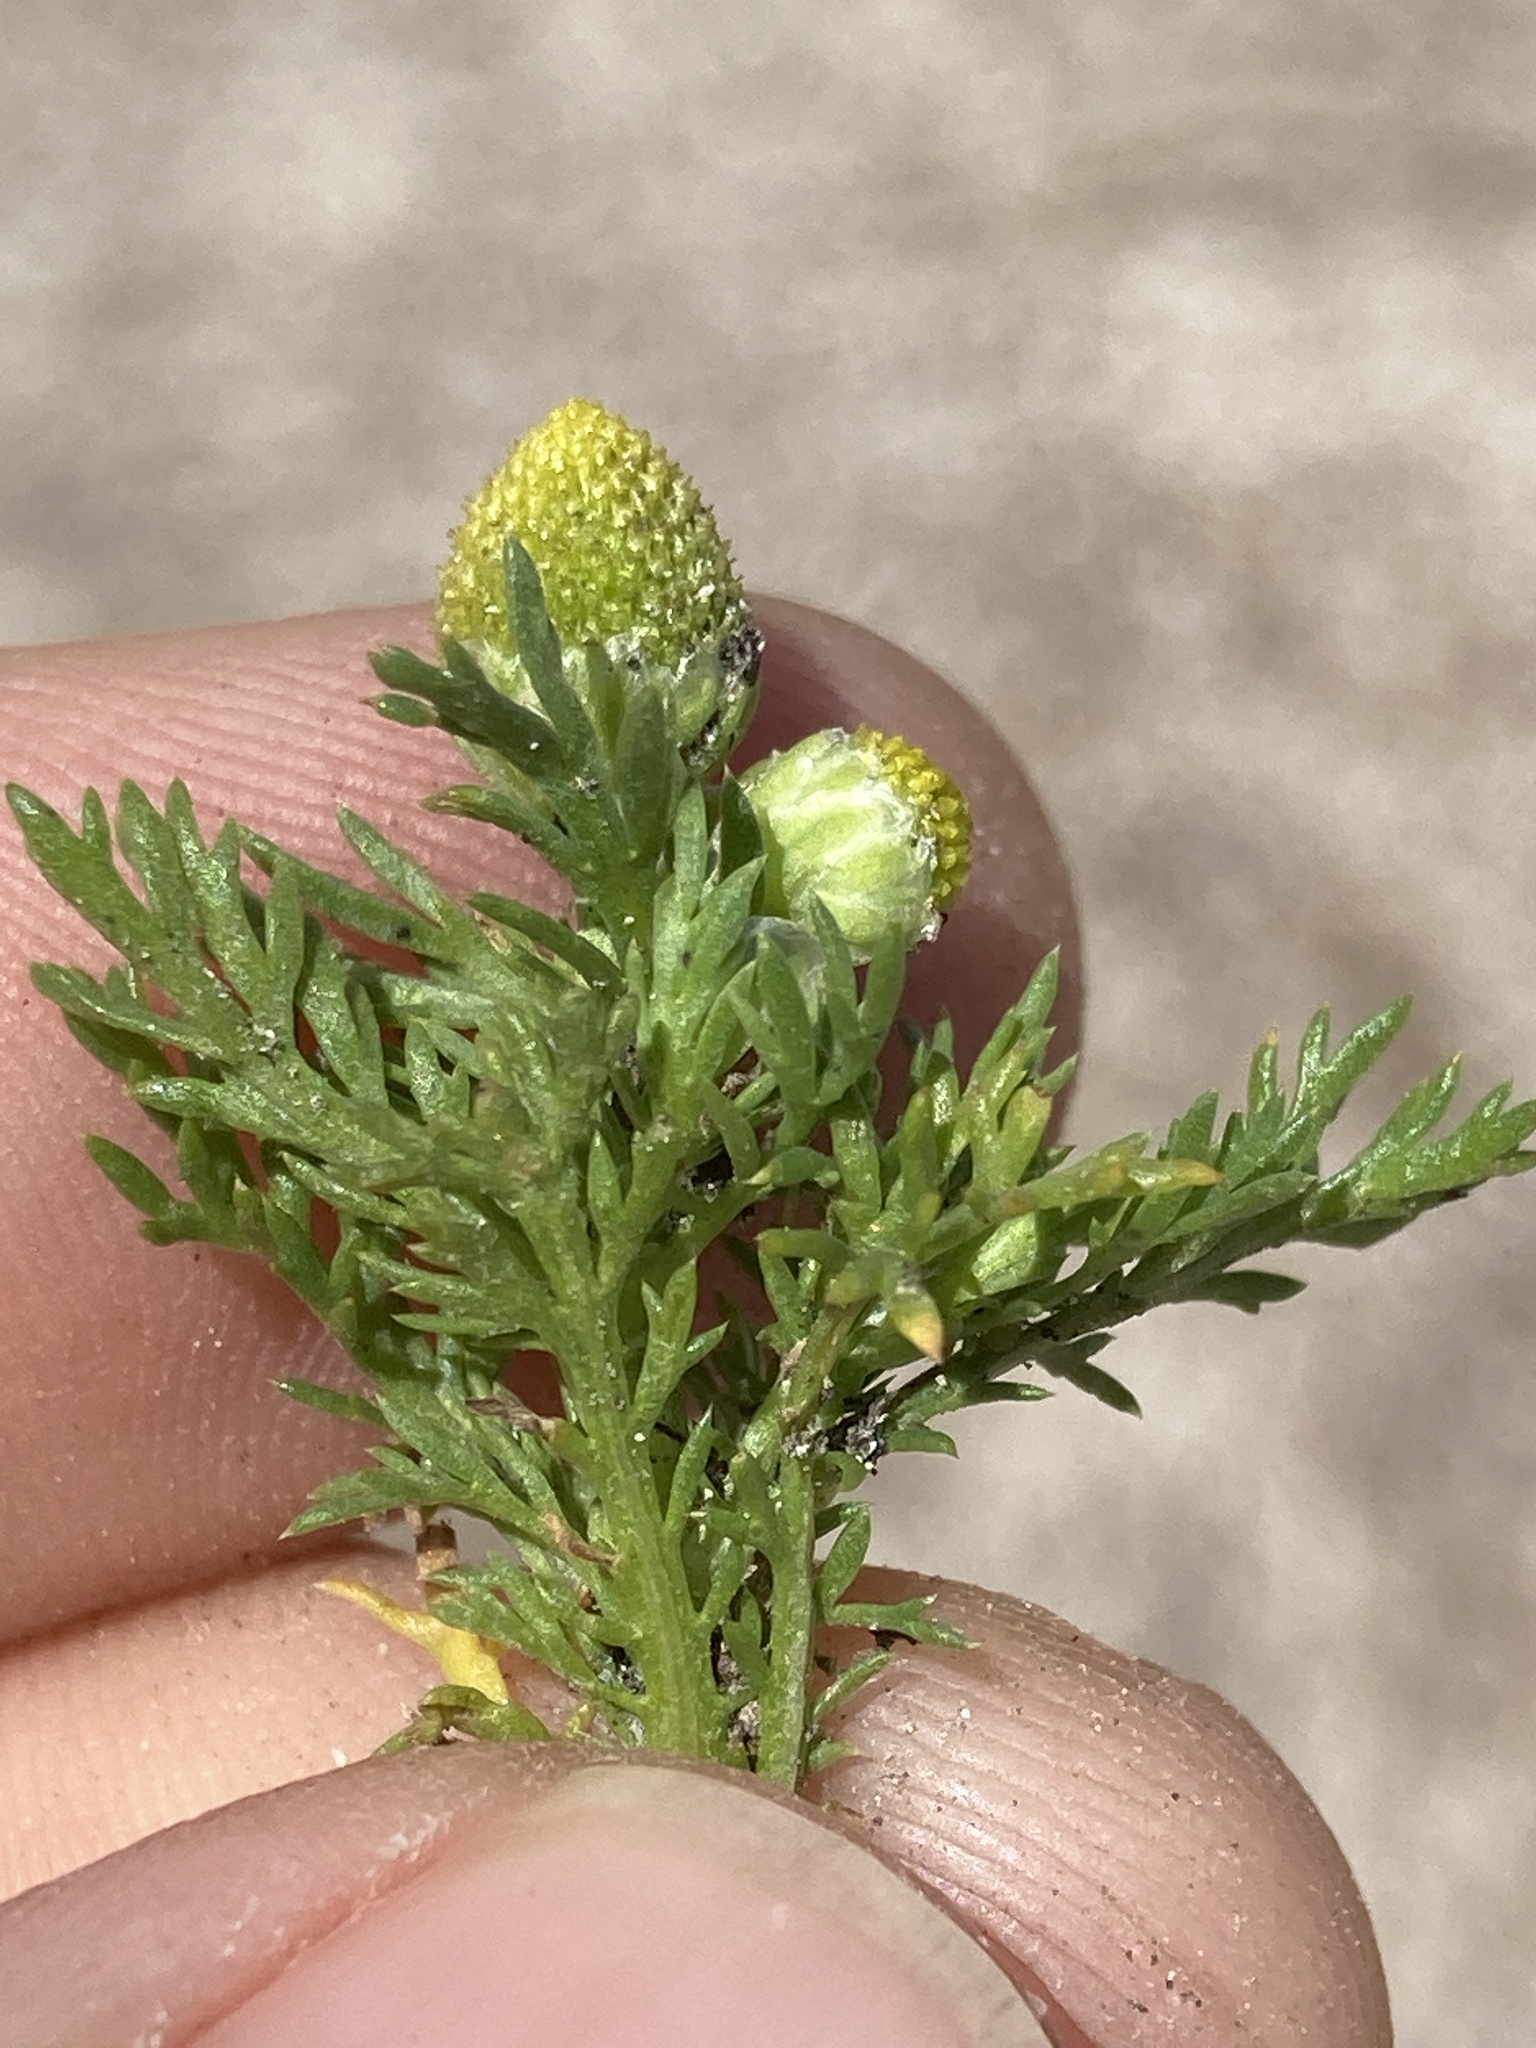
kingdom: Plantae
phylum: Tracheophyta
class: Magnoliopsida
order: Asterales
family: Asteraceae
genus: Matricaria
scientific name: Matricaria discoidea
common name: Disc mayweed
